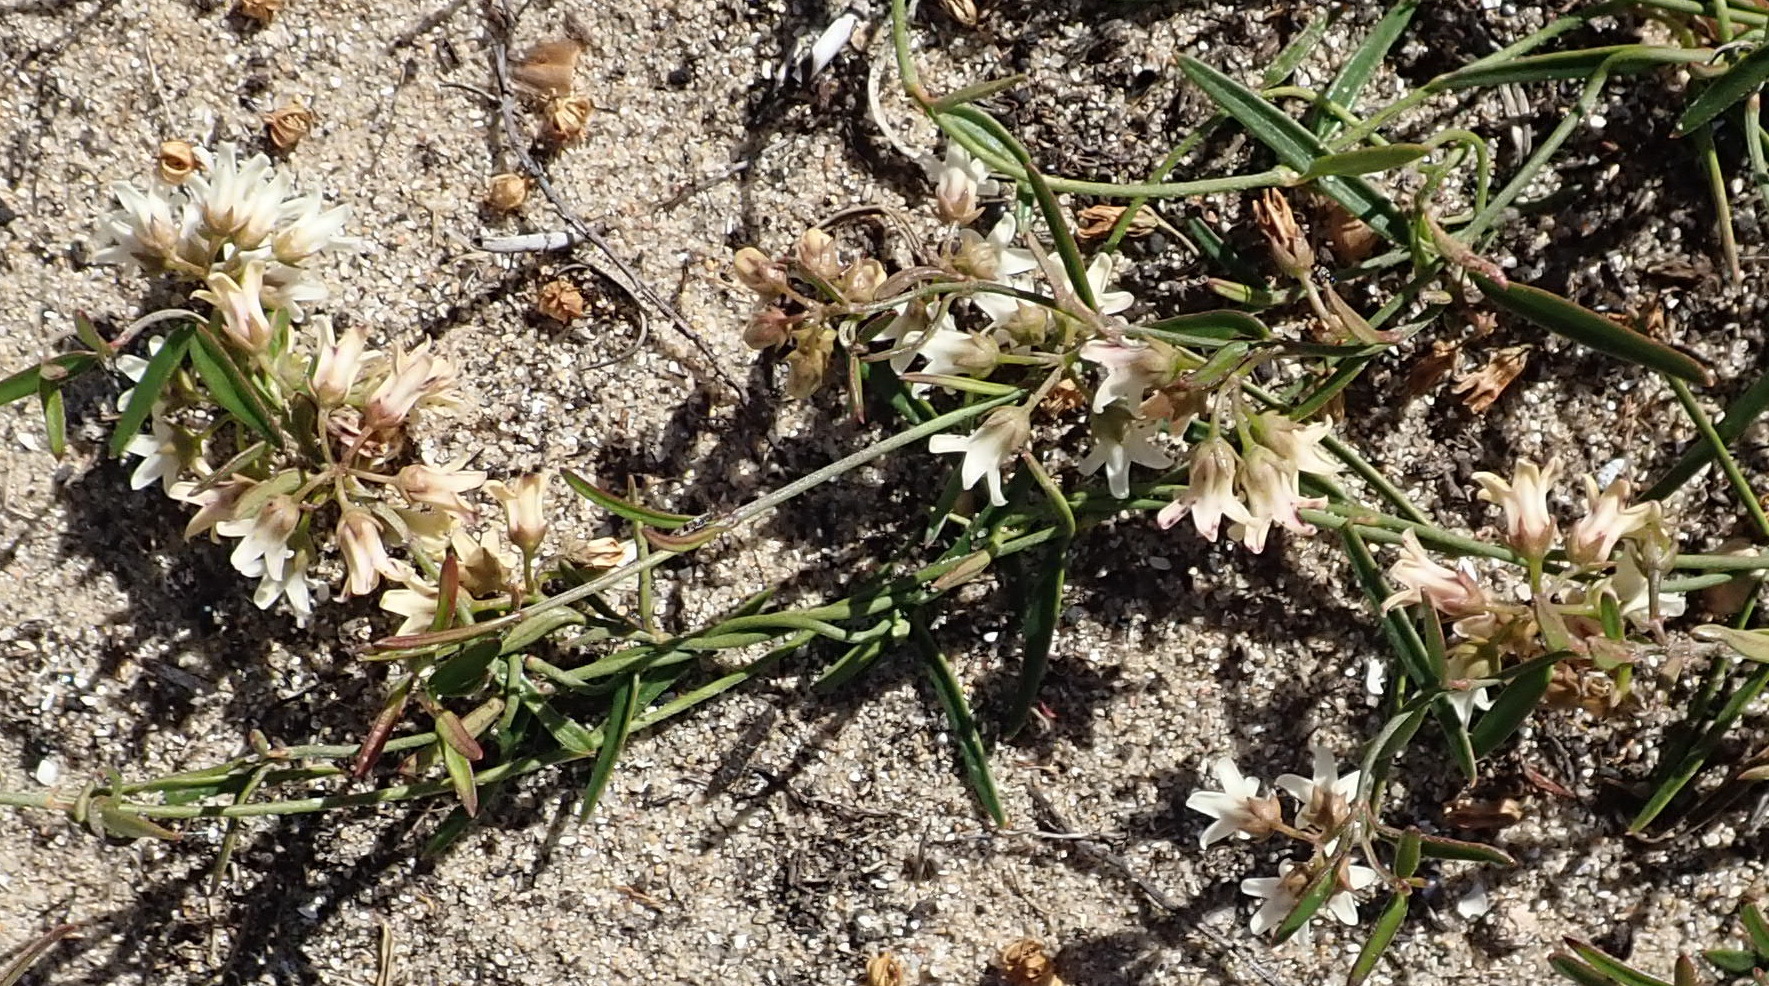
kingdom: Plantae
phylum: Tracheophyta
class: Magnoliopsida
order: Gentianales
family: Apocynaceae
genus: Astephanus
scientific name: Astephanus triflorus
